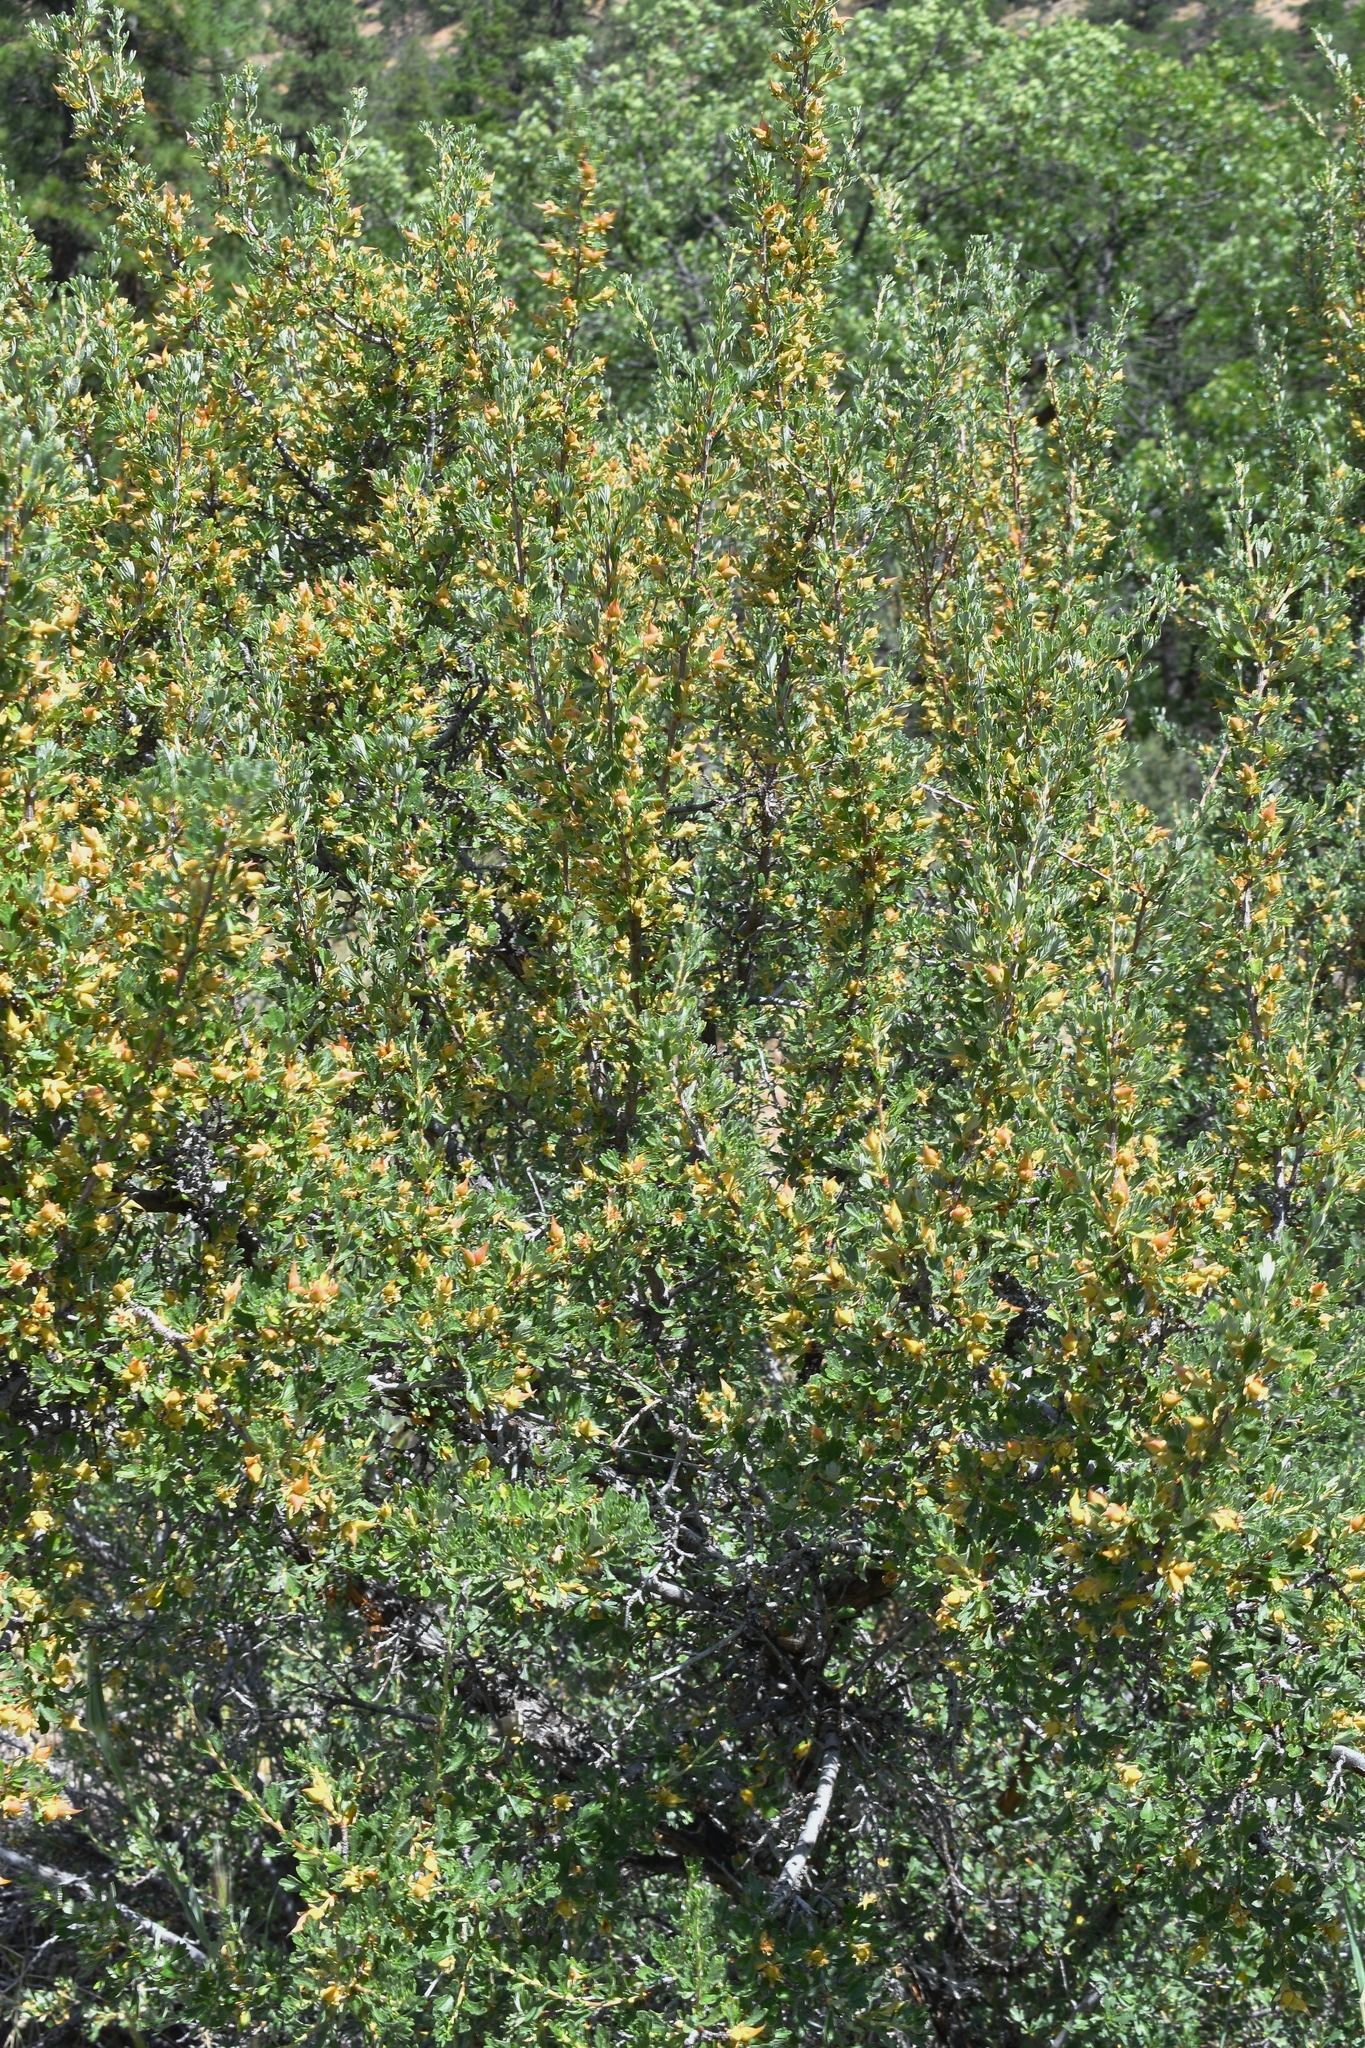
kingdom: Plantae
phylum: Tracheophyta
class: Magnoliopsida
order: Rosales
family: Rosaceae
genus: Purshia
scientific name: Purshia tridentata
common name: Antelope bitterbrush
